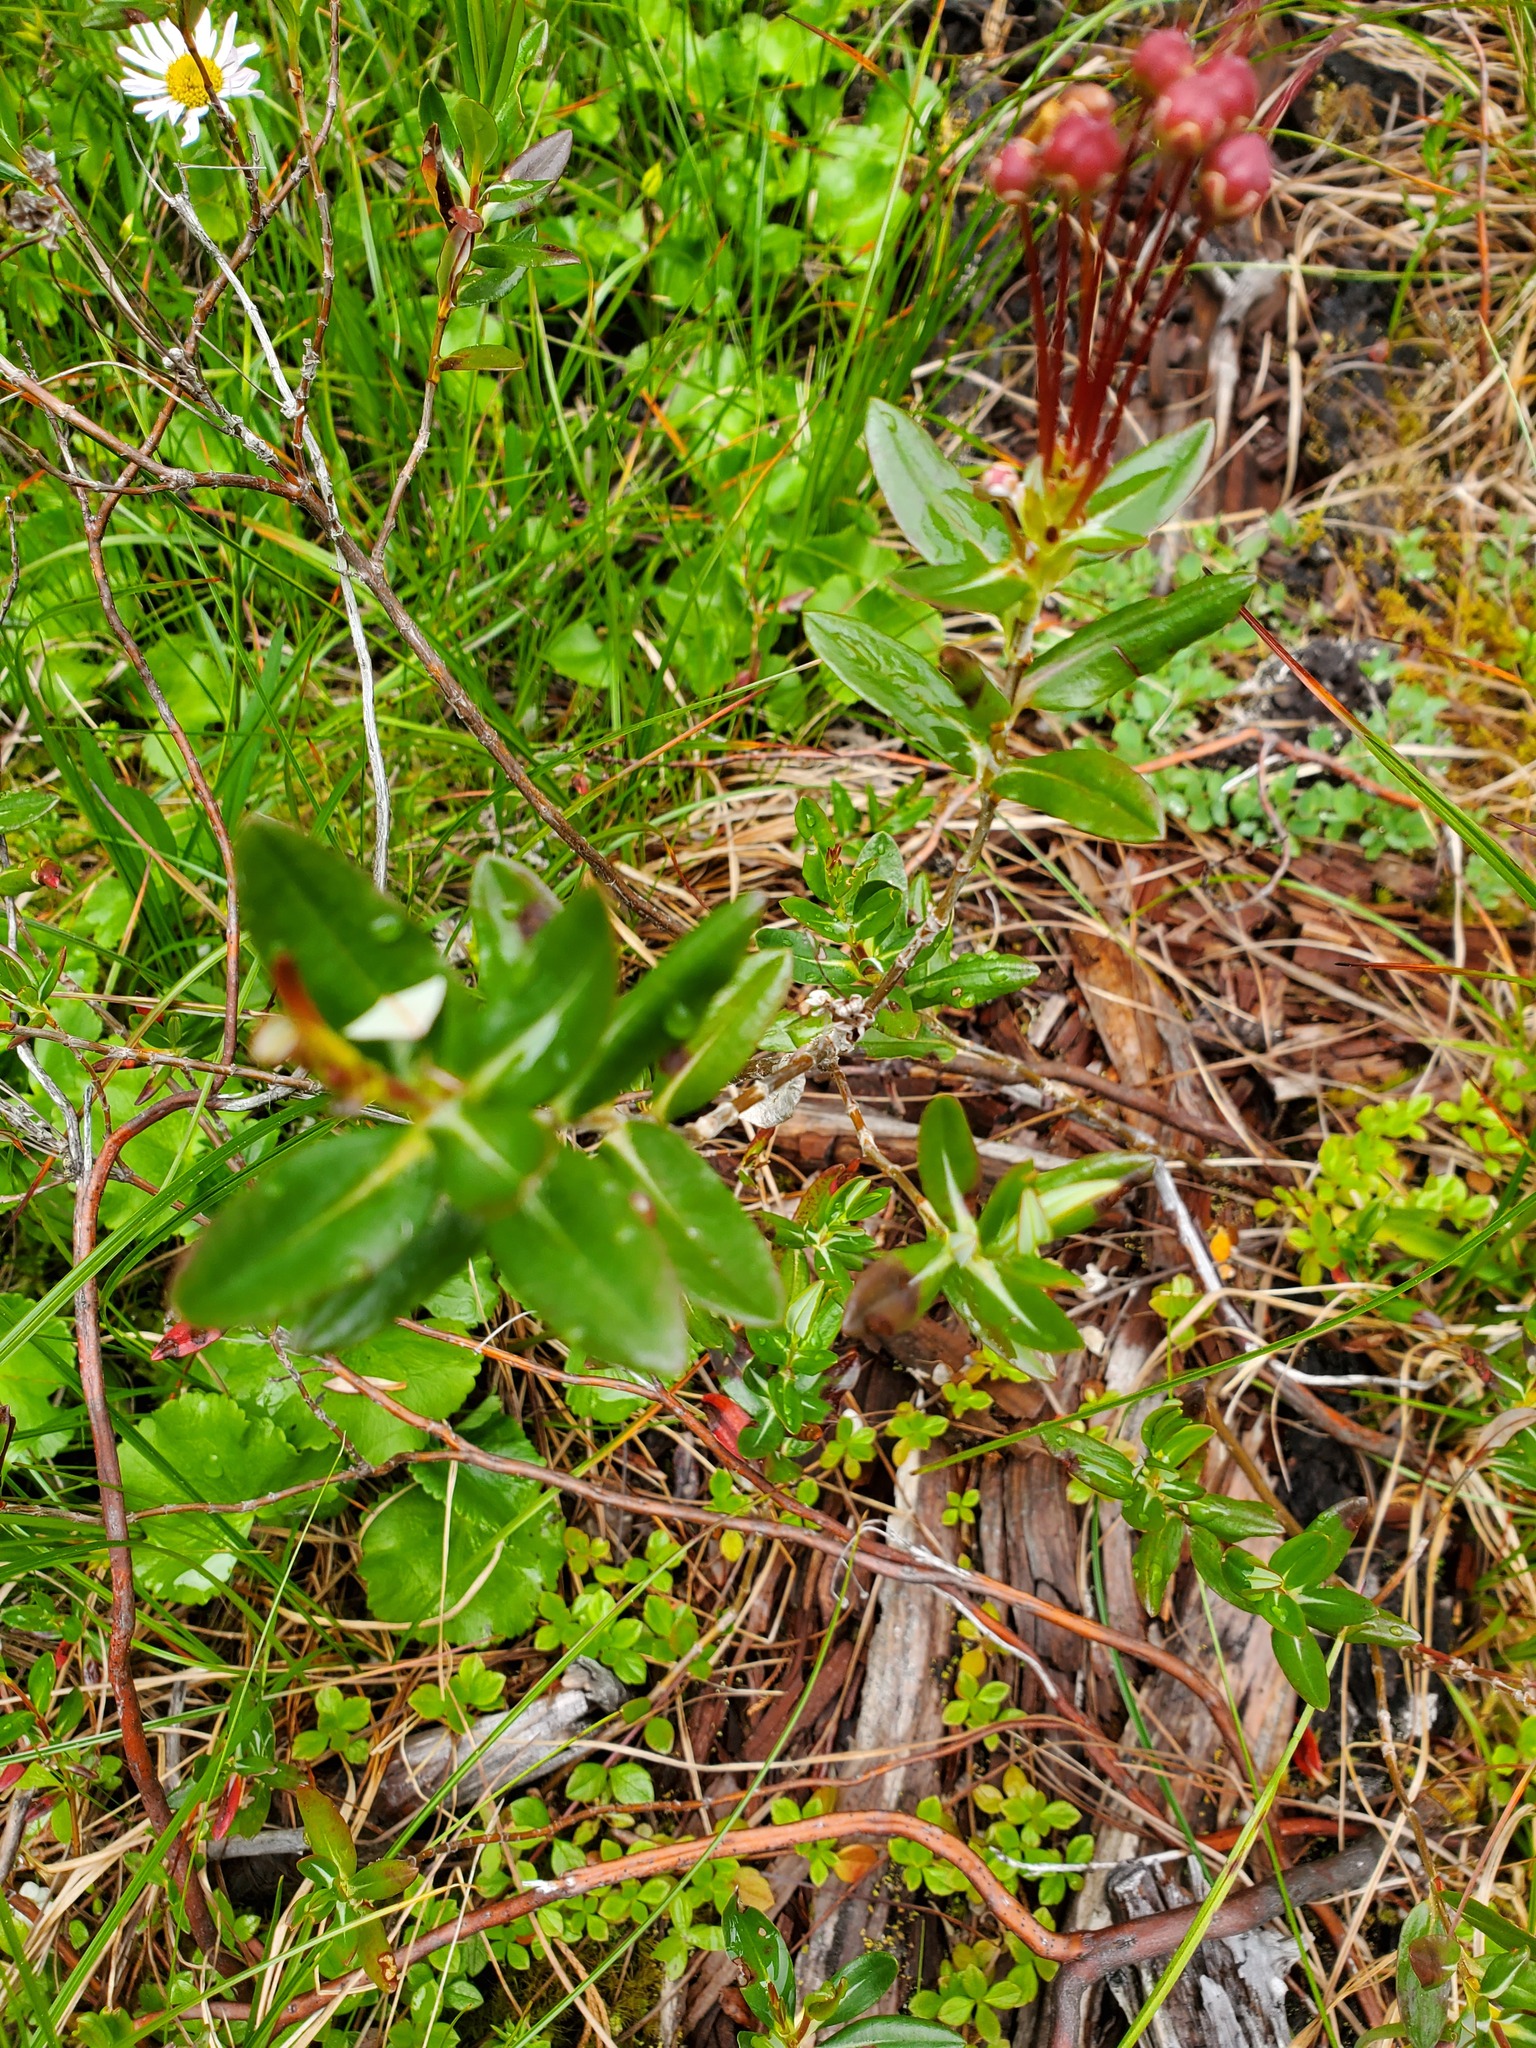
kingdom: Plantae
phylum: Tracheophyta
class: Magnoliopsida
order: Ericales
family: Ericaceae
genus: Kalmia
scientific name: Kalmia microphylla
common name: Alpine bog laurel
